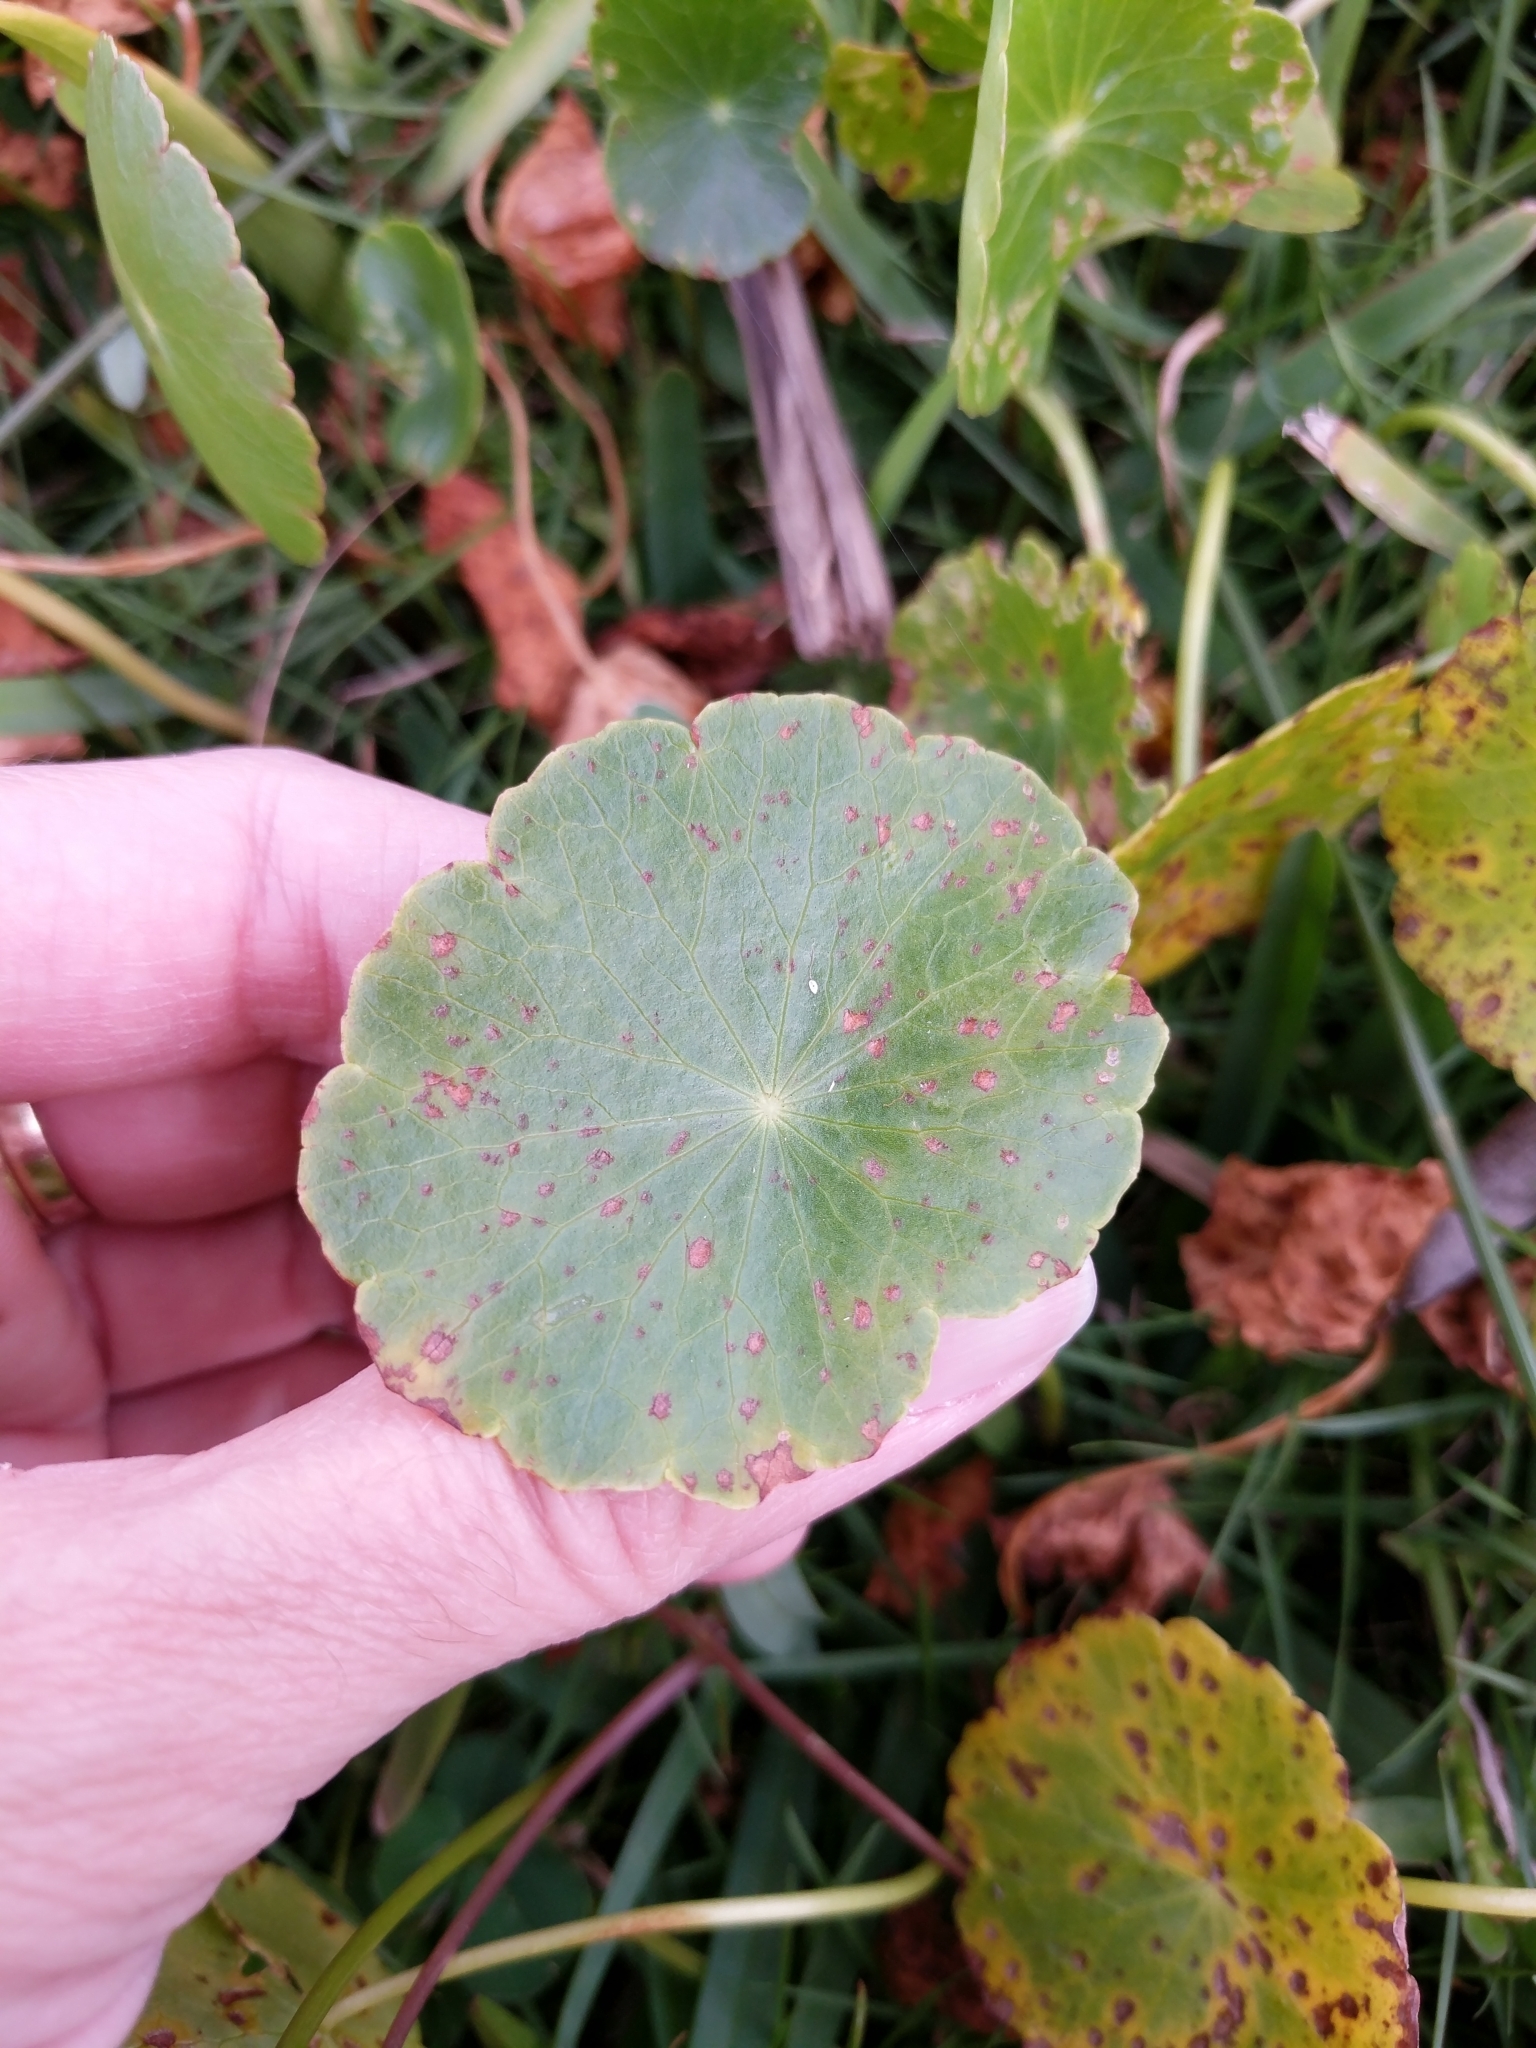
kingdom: Plantae
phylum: Tracheophyta
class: Magnoliopsida
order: Apiales
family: Araliaceae
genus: Hydrocotyle
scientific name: Hydrocotyle bonariensis
